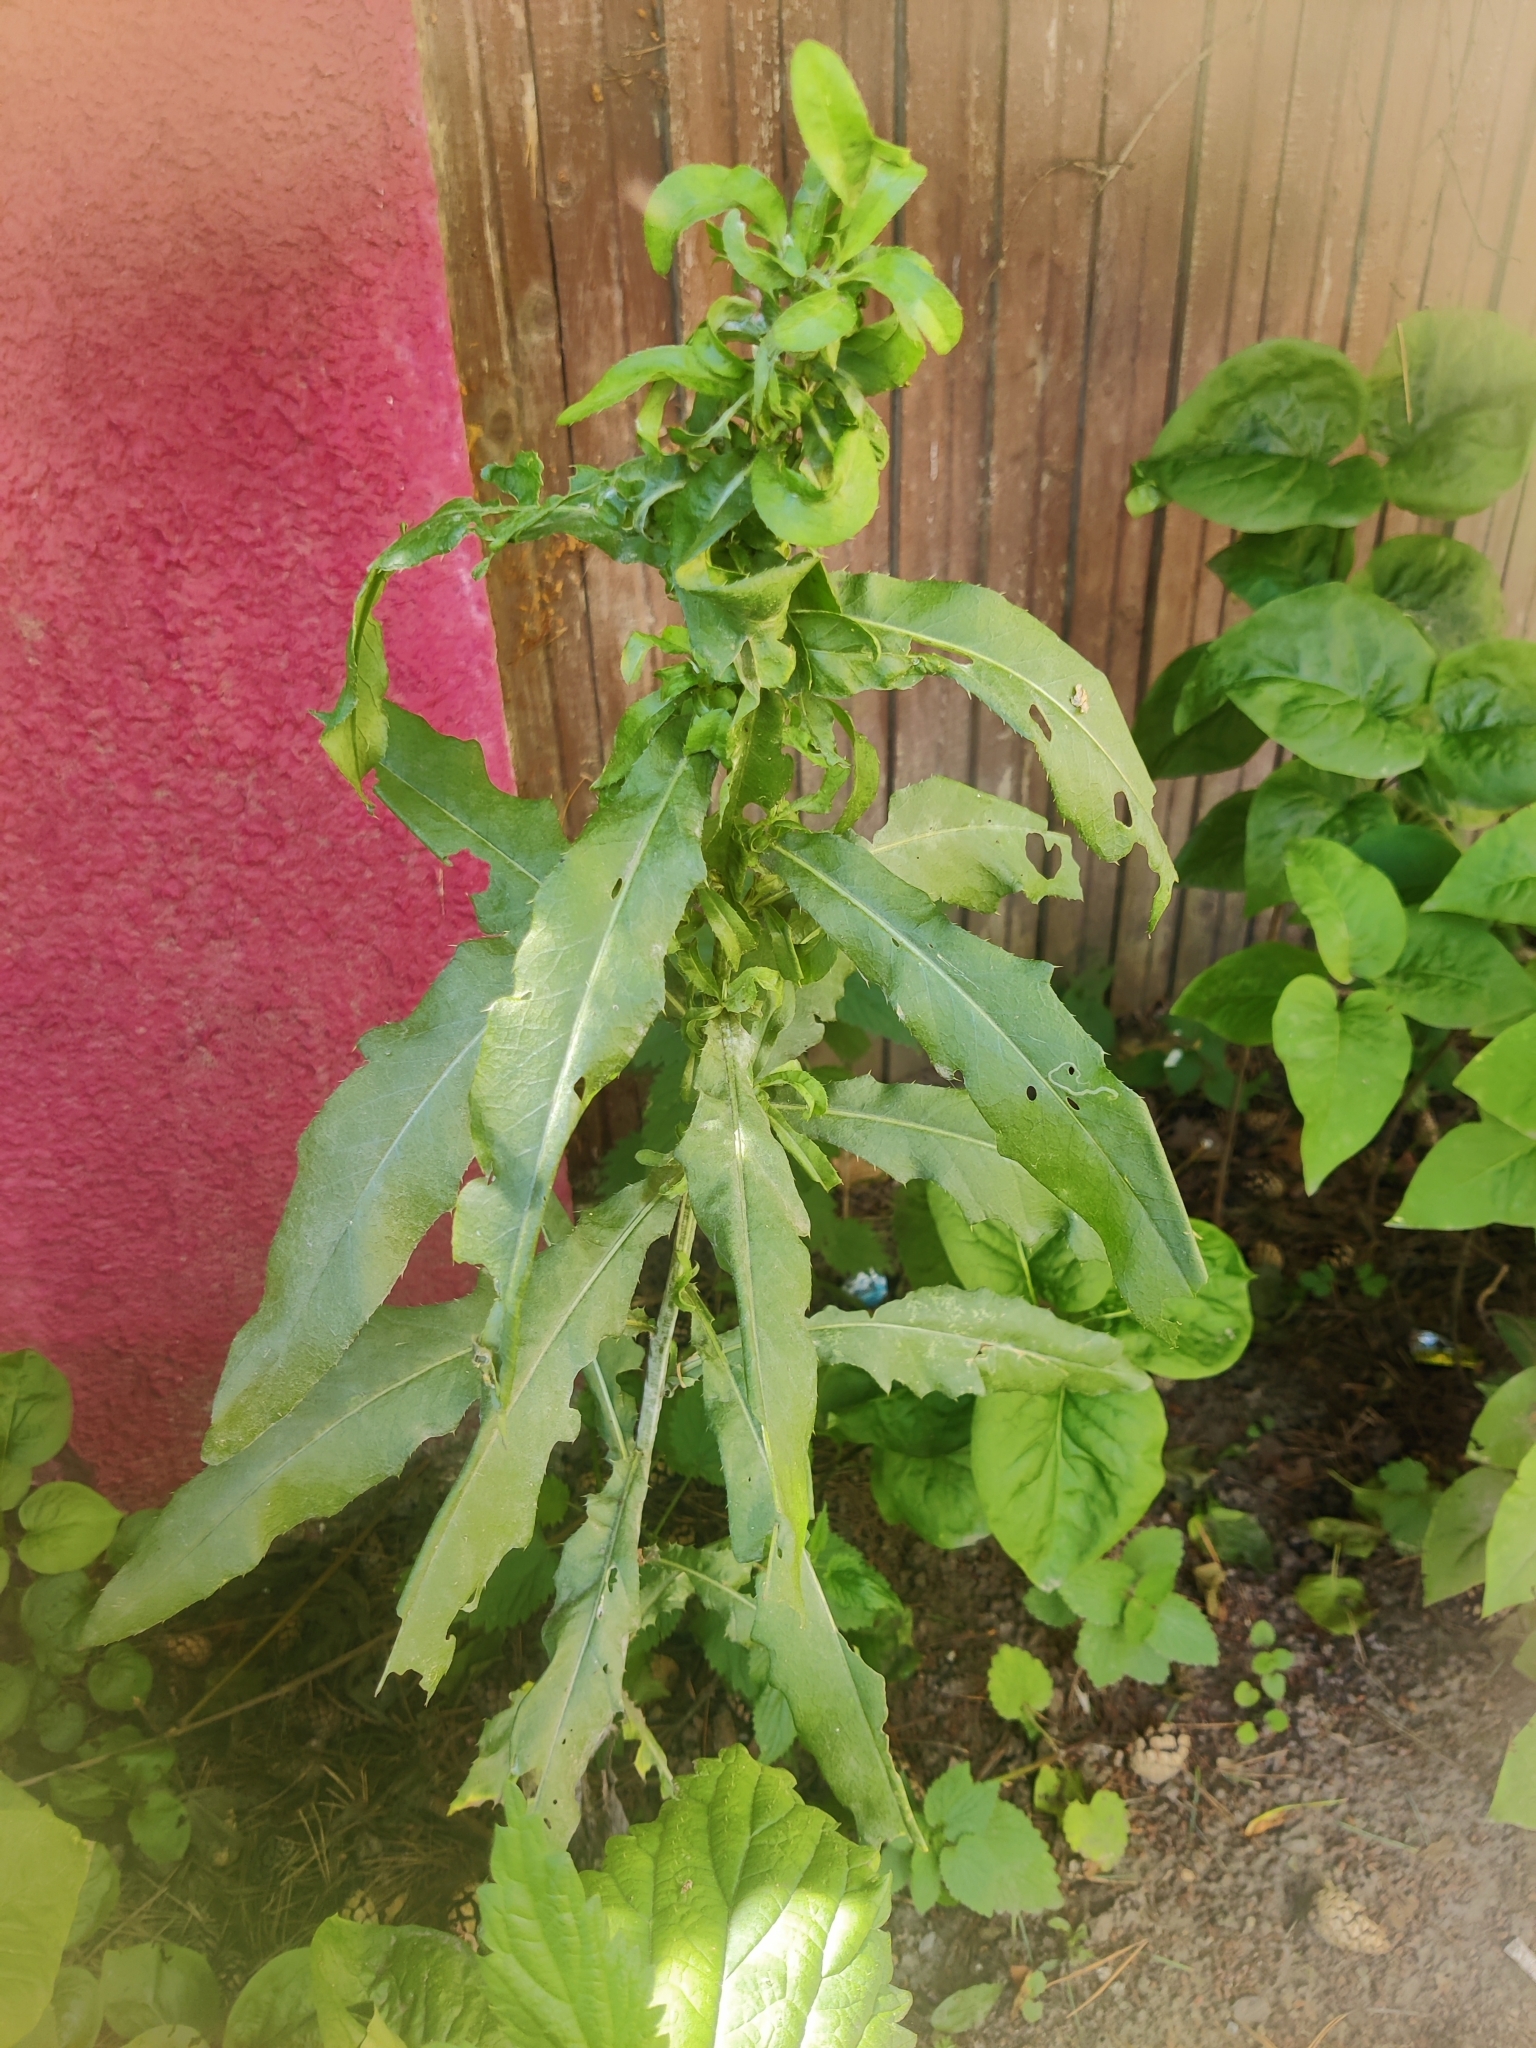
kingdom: Plantae
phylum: Tracheophyta
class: Magnoliopsida
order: Asterales
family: Asteraceae
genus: Cirsium
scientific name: Cirsium arvense
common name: Creeping thistle
